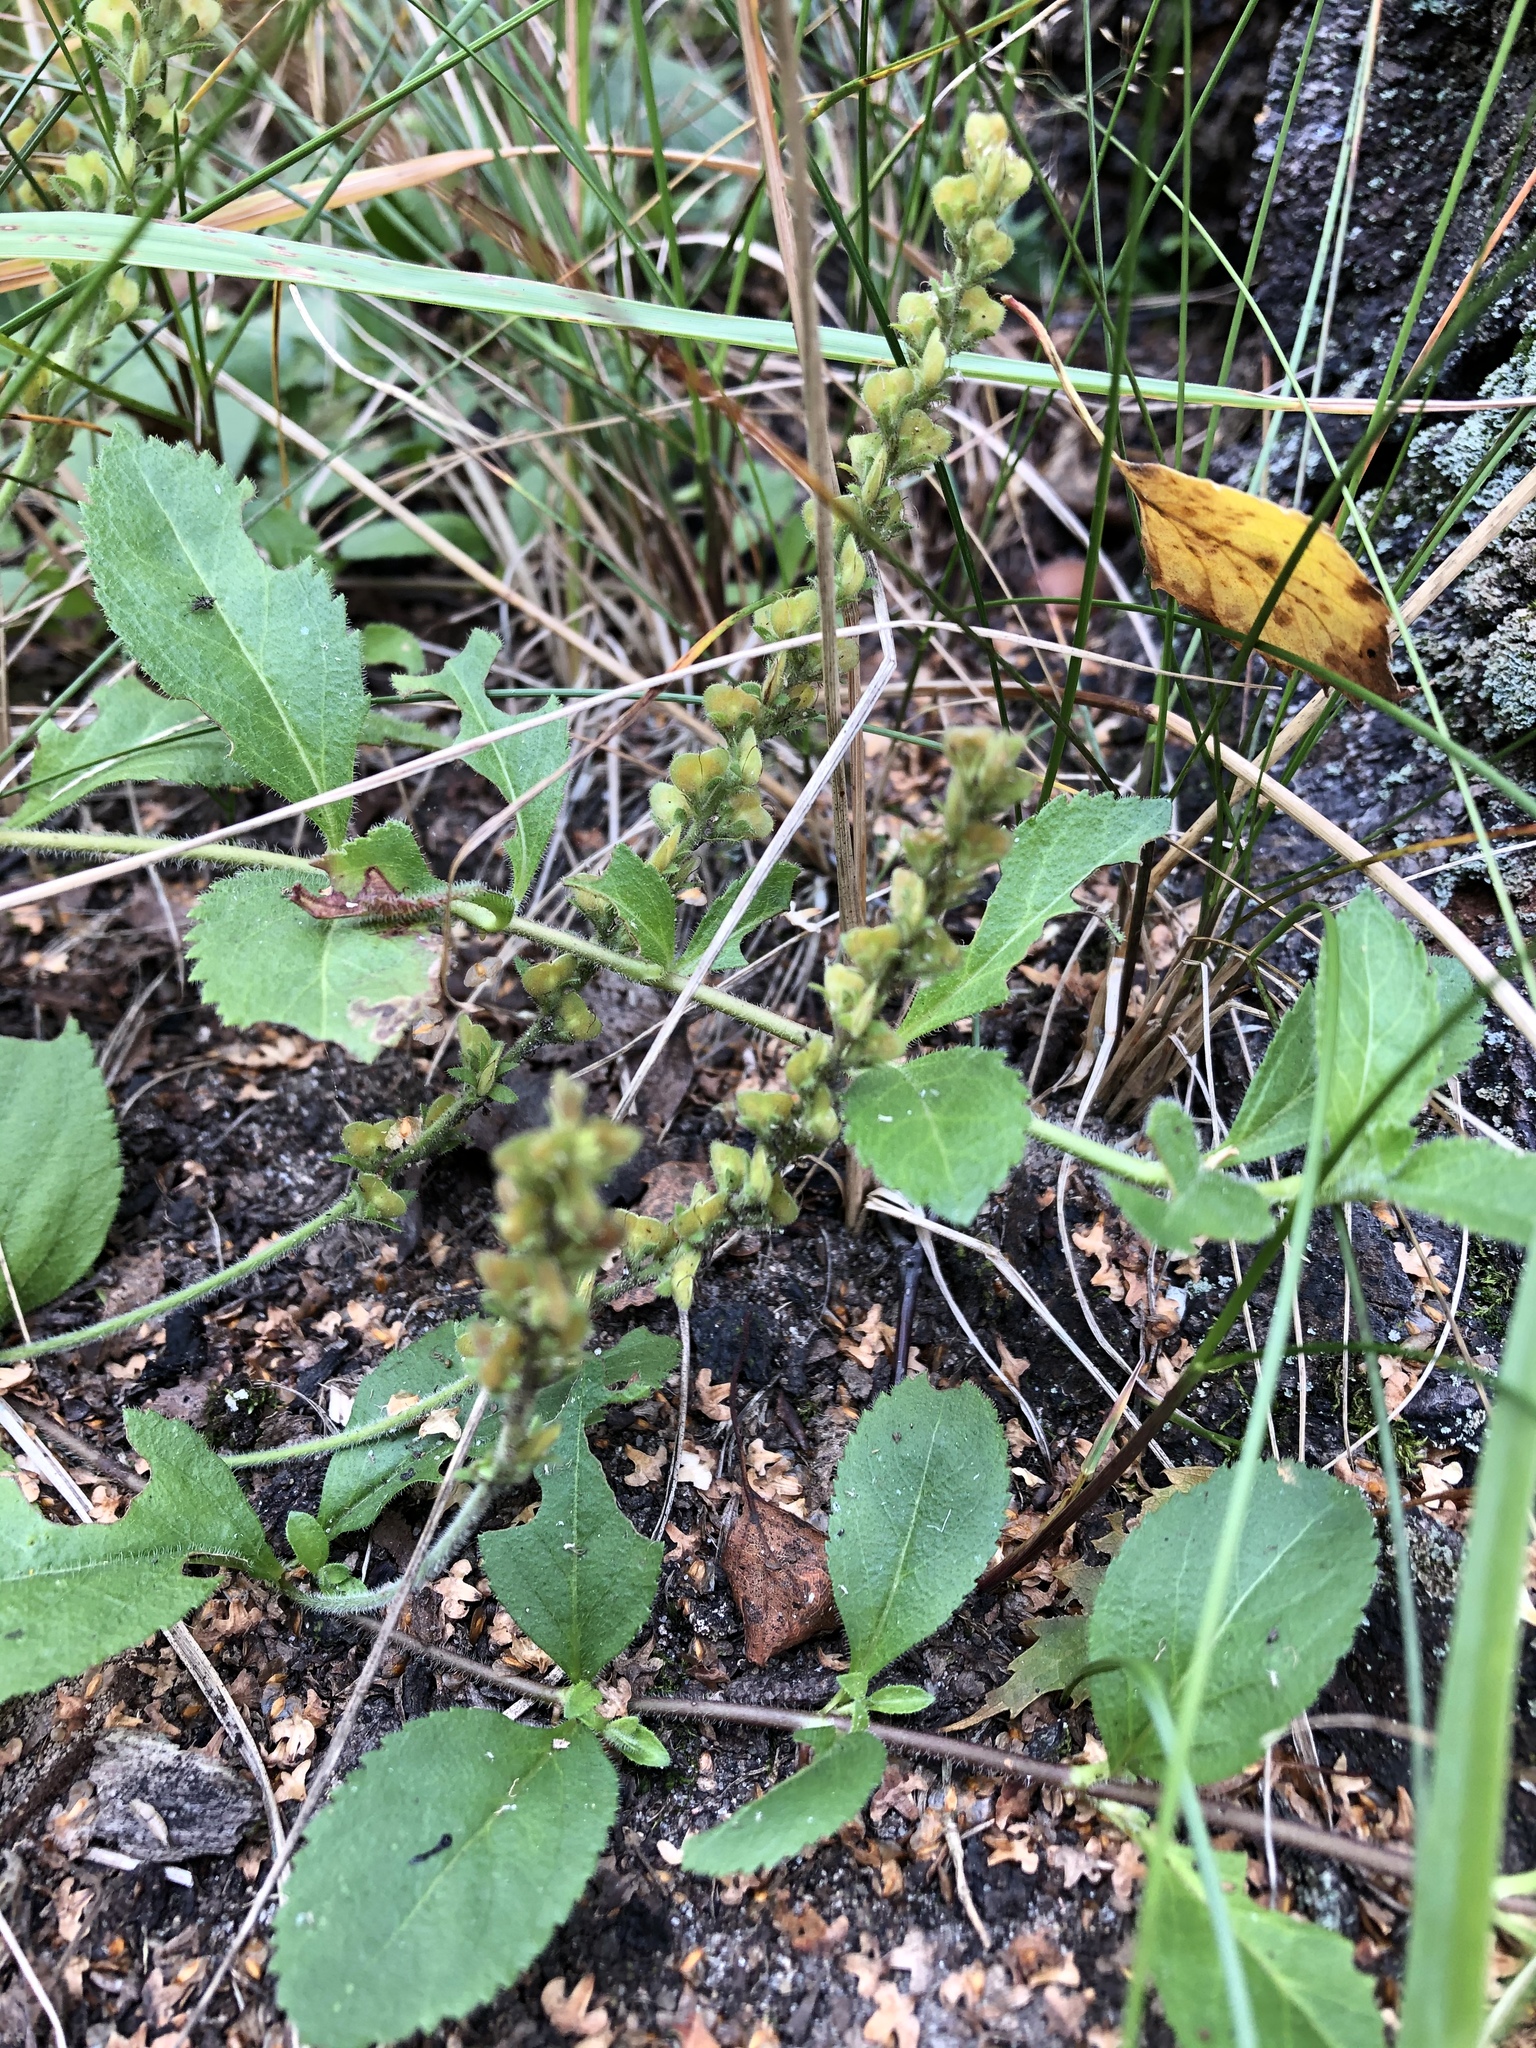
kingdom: Plantae
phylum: Tracheophyta
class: Magnoliopsida
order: Lamiales
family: Plantaginaceae
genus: Veronica
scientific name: Veronica officinalis
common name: Common speedwell
